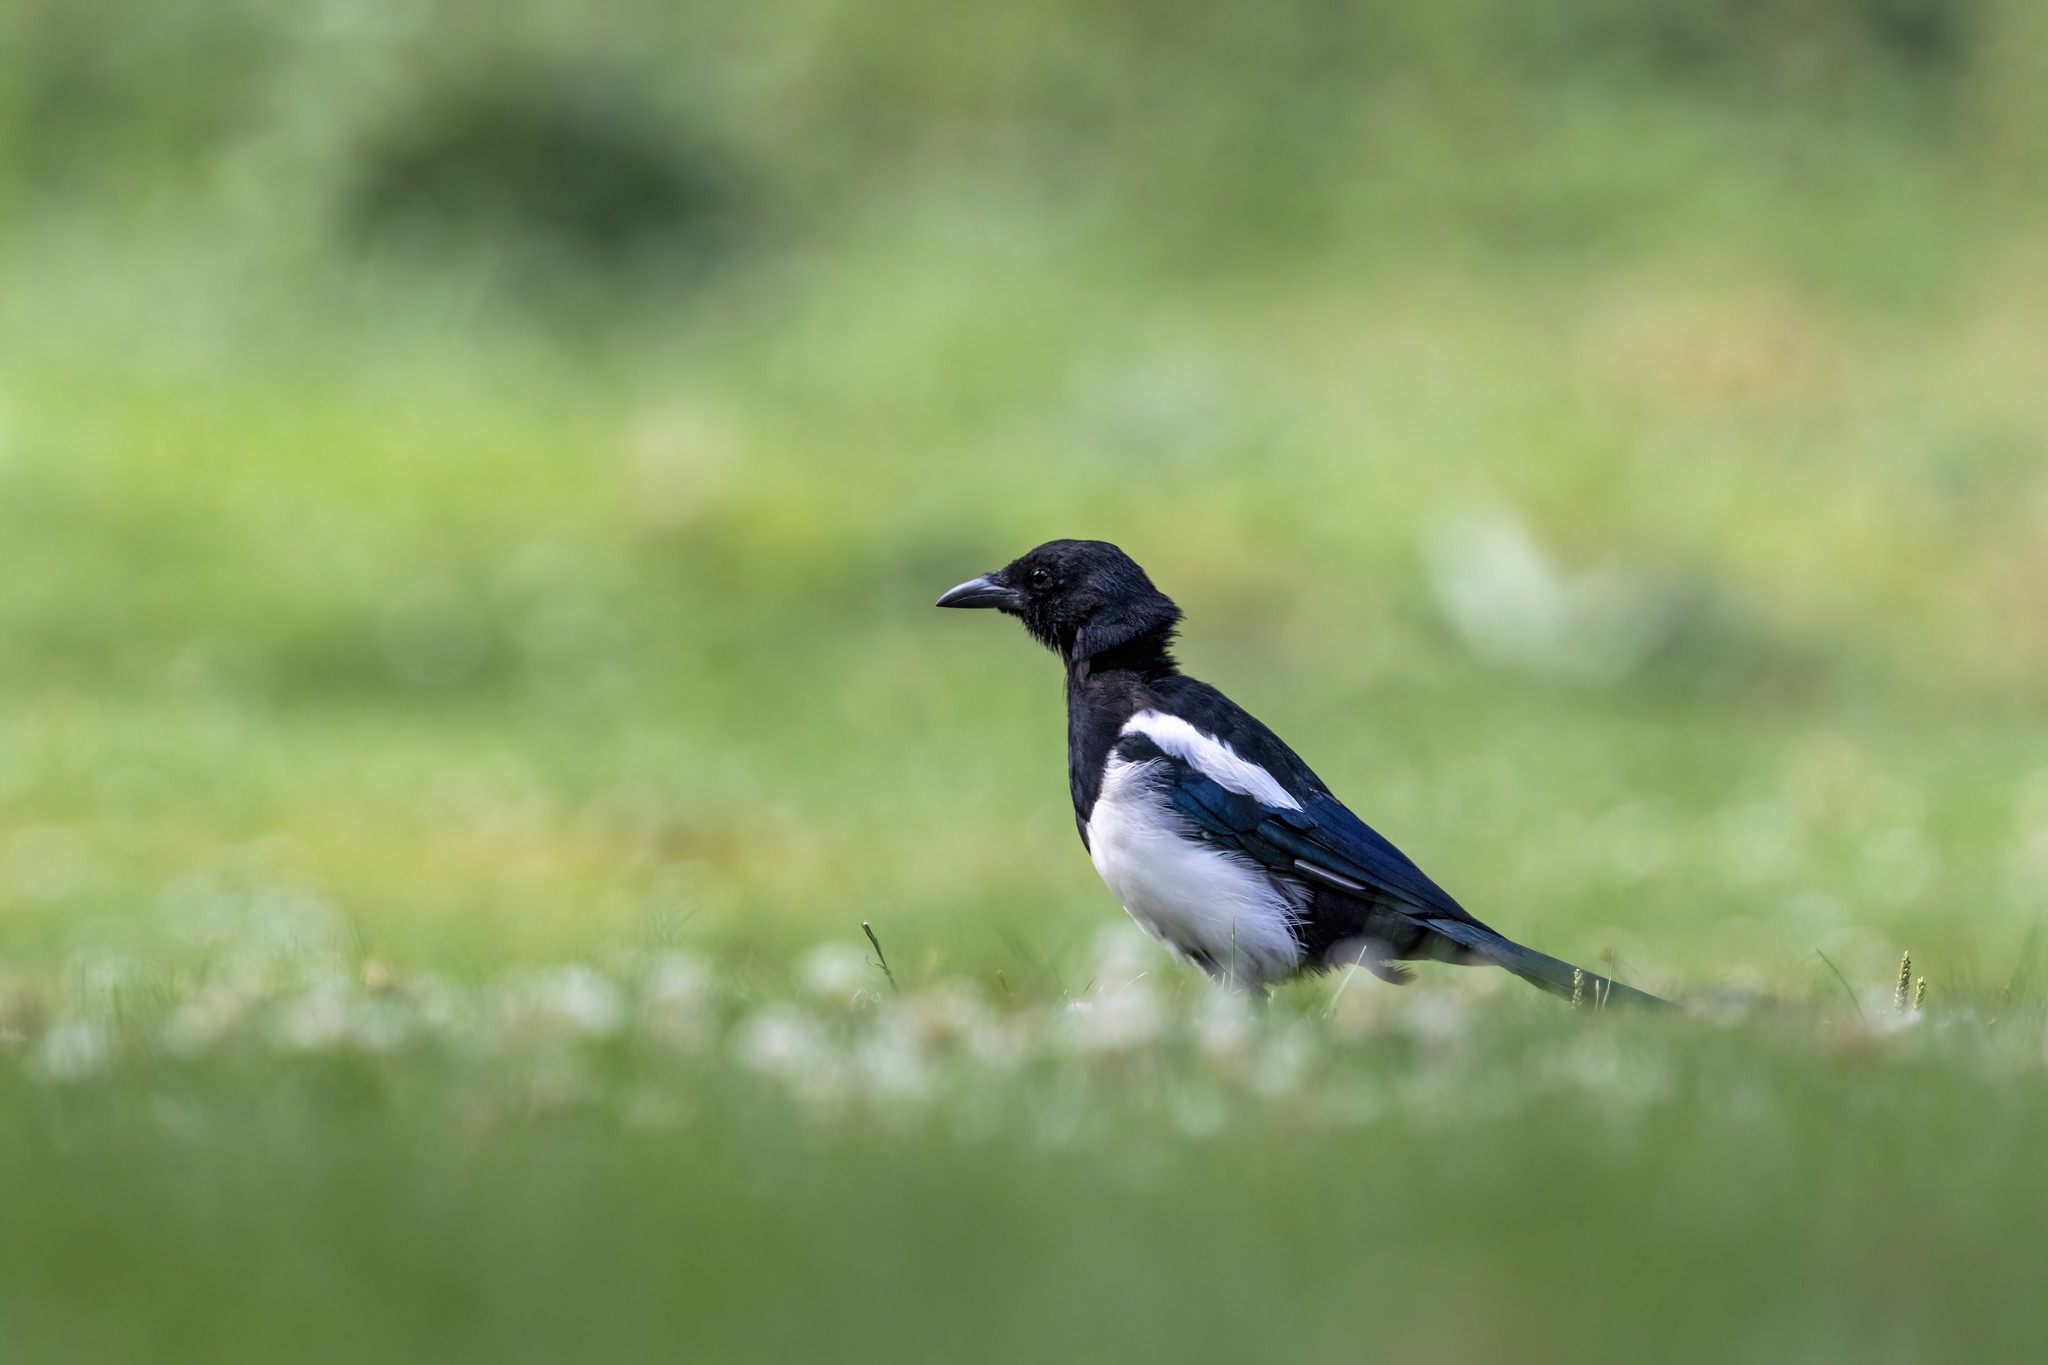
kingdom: Animalia
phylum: Chordata
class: Aves
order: Passeriformes
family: Corvidae
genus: Pica
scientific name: Pica pica
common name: Eurasian magpie
